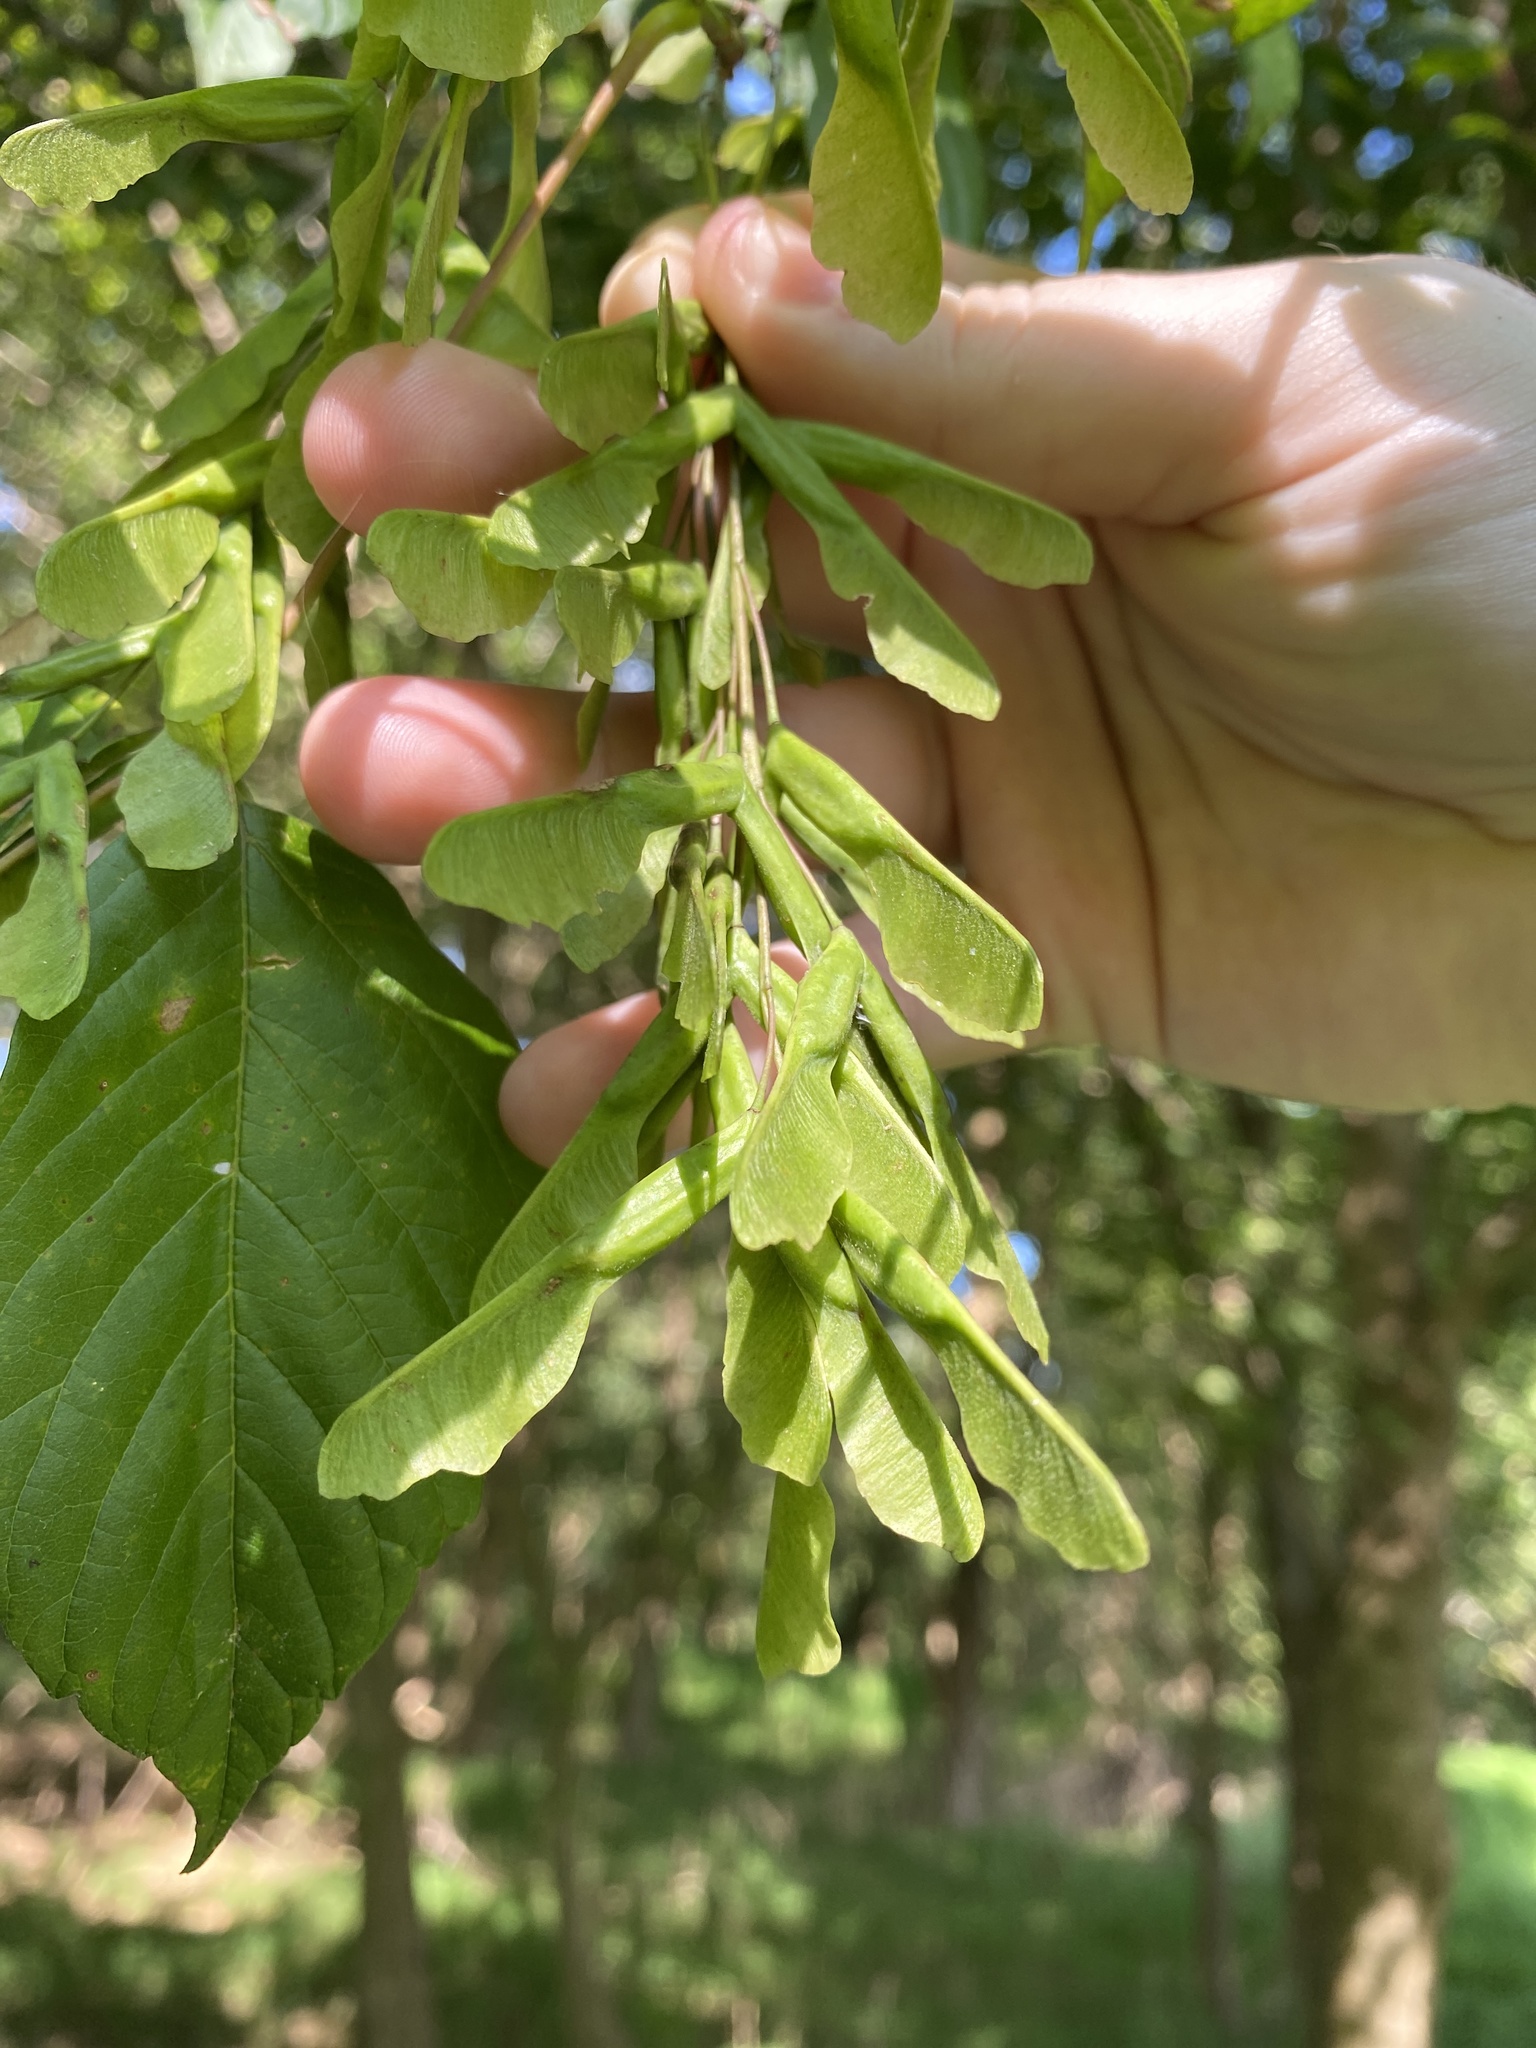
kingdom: Plantae
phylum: Tracheophyta
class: Magnoliopsida
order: Sapindales
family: Sapindaceae
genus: Acer
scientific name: Acer negundo
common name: Ashleaf maple
